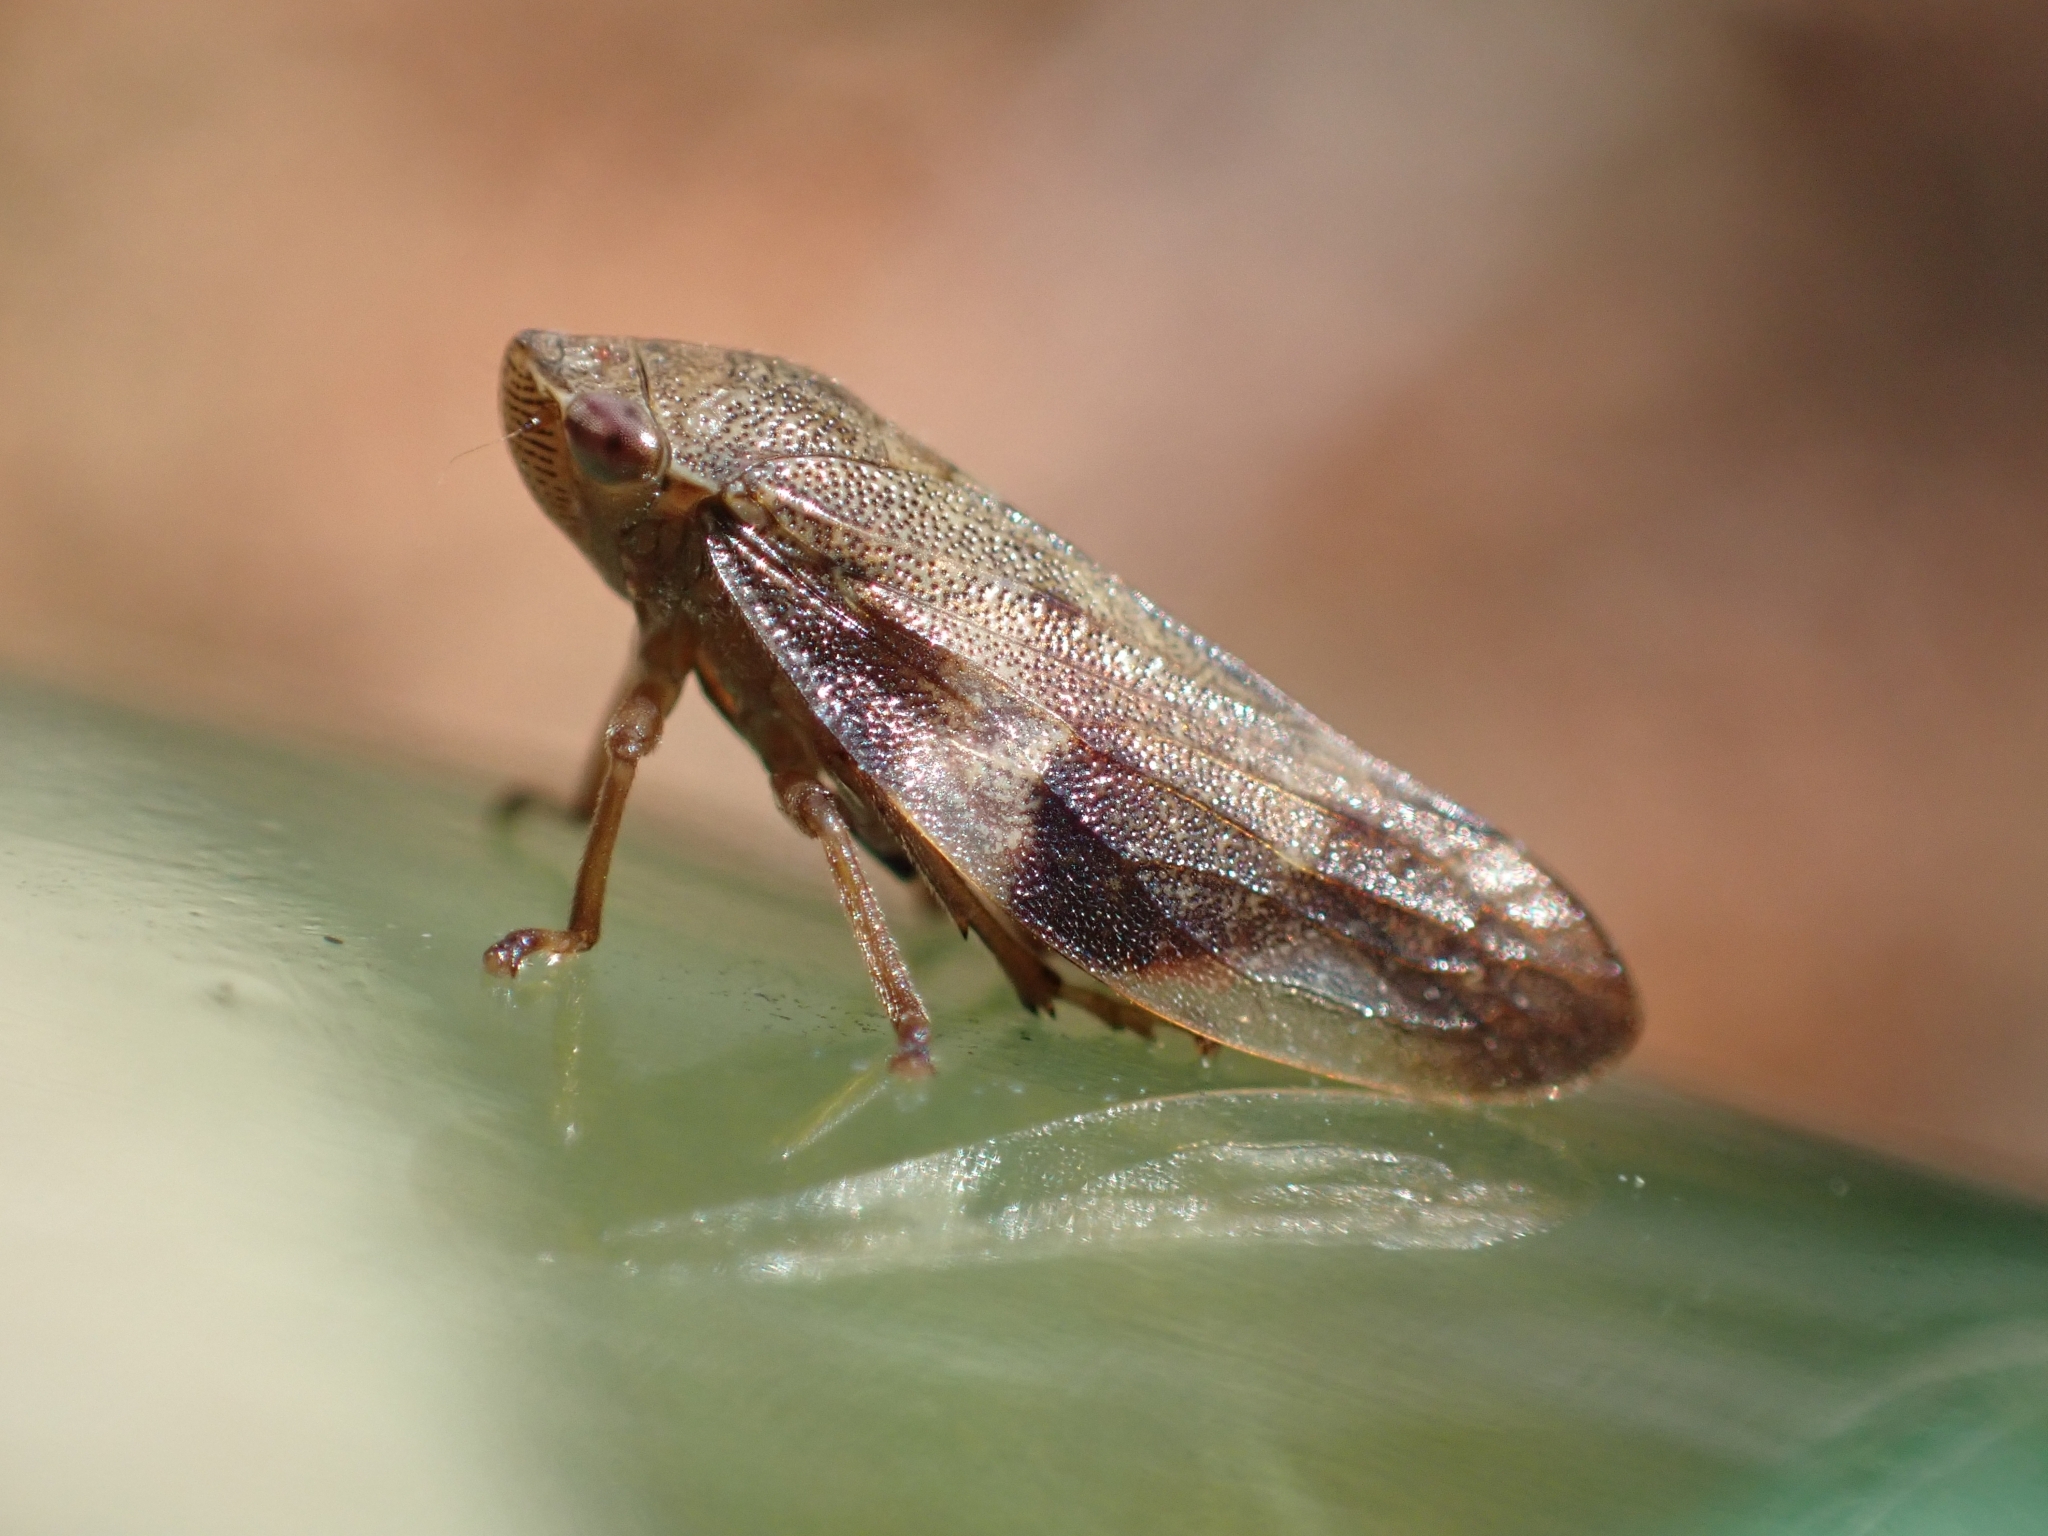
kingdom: Animalia
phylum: Arthropoda
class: Insecta
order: Hemiptera
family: Aphrophoridae
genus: Aphrophora
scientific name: Aphrophora alni
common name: European alder spittlebug
